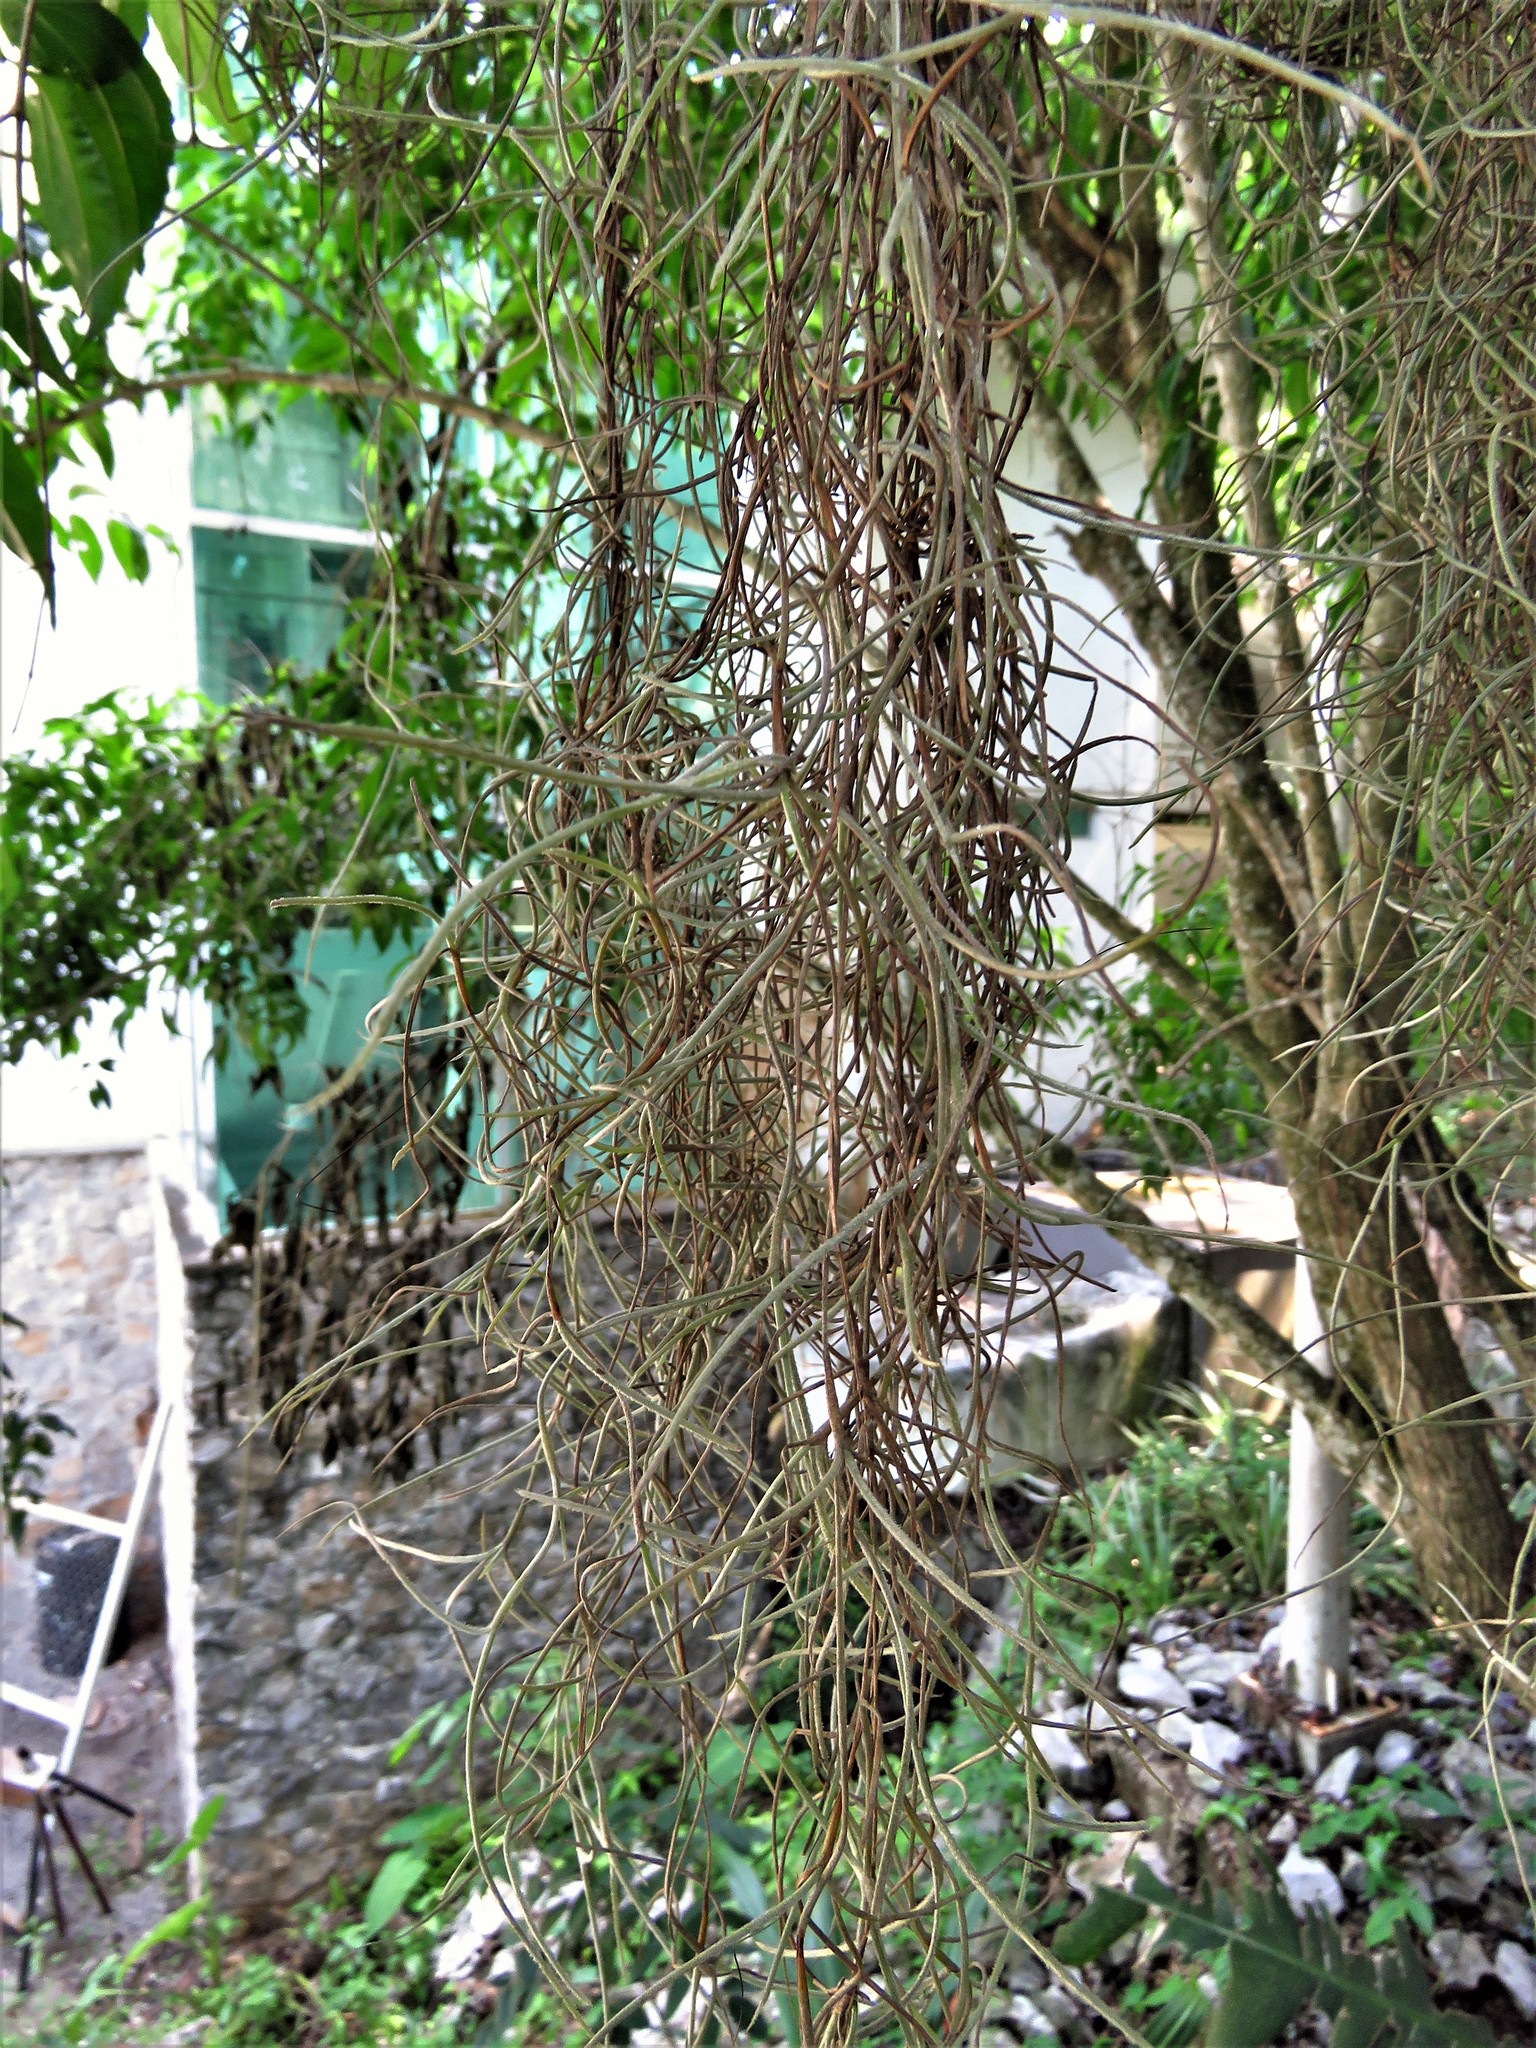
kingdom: Plantae
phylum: Tracheophyta
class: Liliopsida
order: Poales
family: Bromeliaceae
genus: Tillandsia
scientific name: Tillandsia usneoides
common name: Spanish moss
